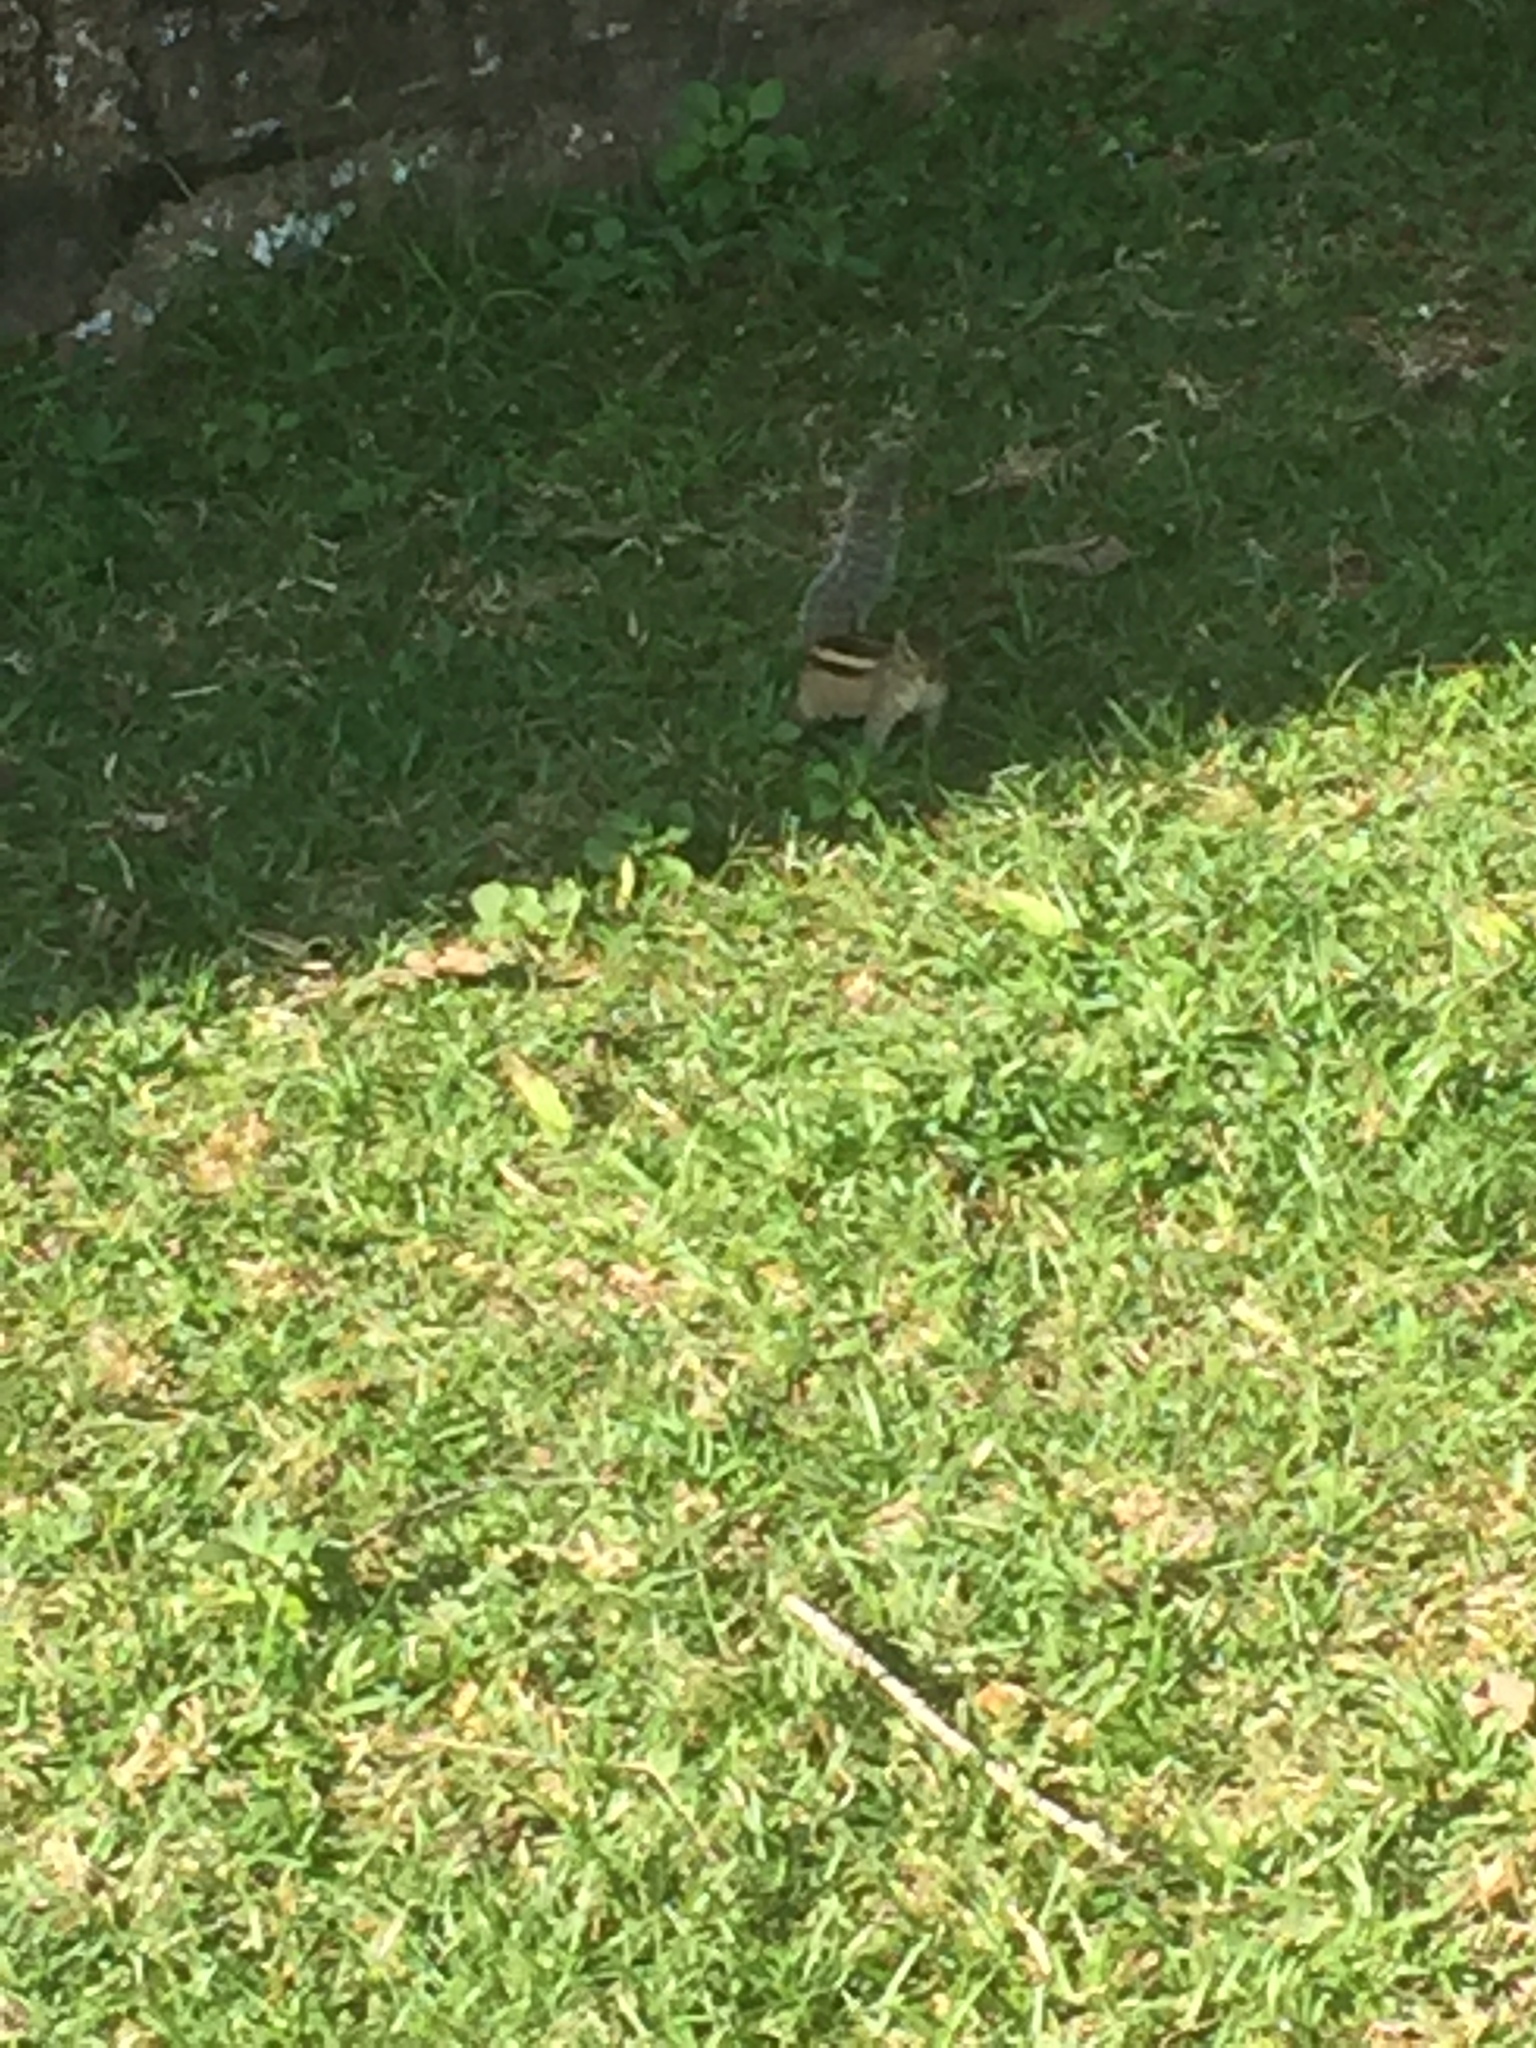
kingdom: Animalia
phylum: Chordata
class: Mammalia
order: Rodentia
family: Sciuridae
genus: Funambulus
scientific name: Funambulus palmarum
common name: Indian palm squirrel
